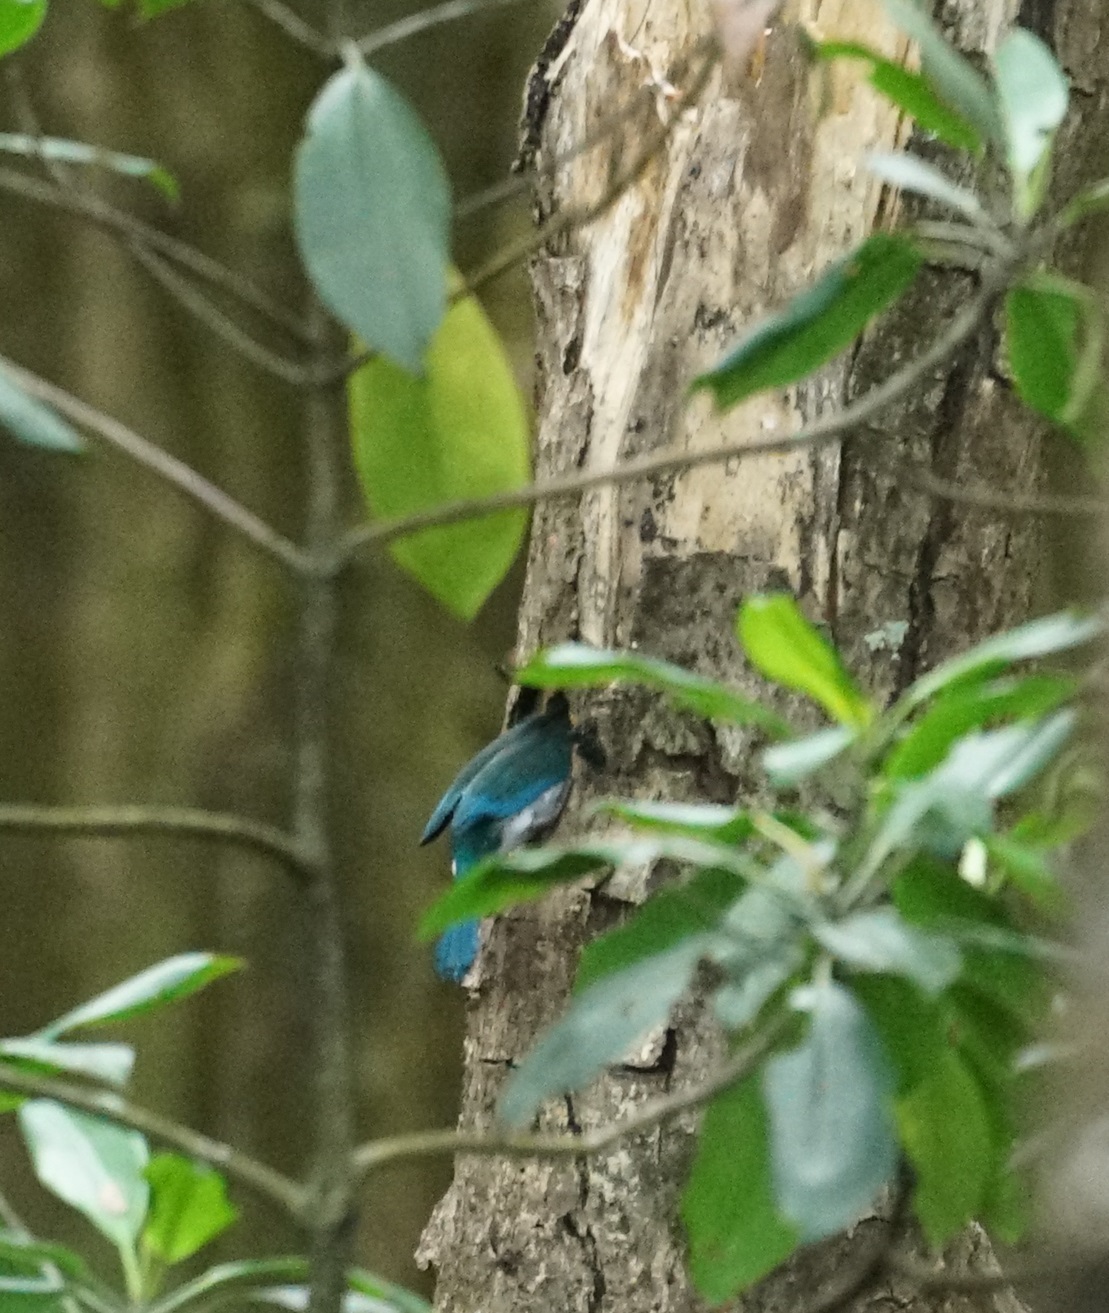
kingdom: Animalia
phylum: Chordata
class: Aves
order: Coraciiformes
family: Alcedinidae
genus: Todiramphus
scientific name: Todiramphus sordidus
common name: Torresian kingfisher
